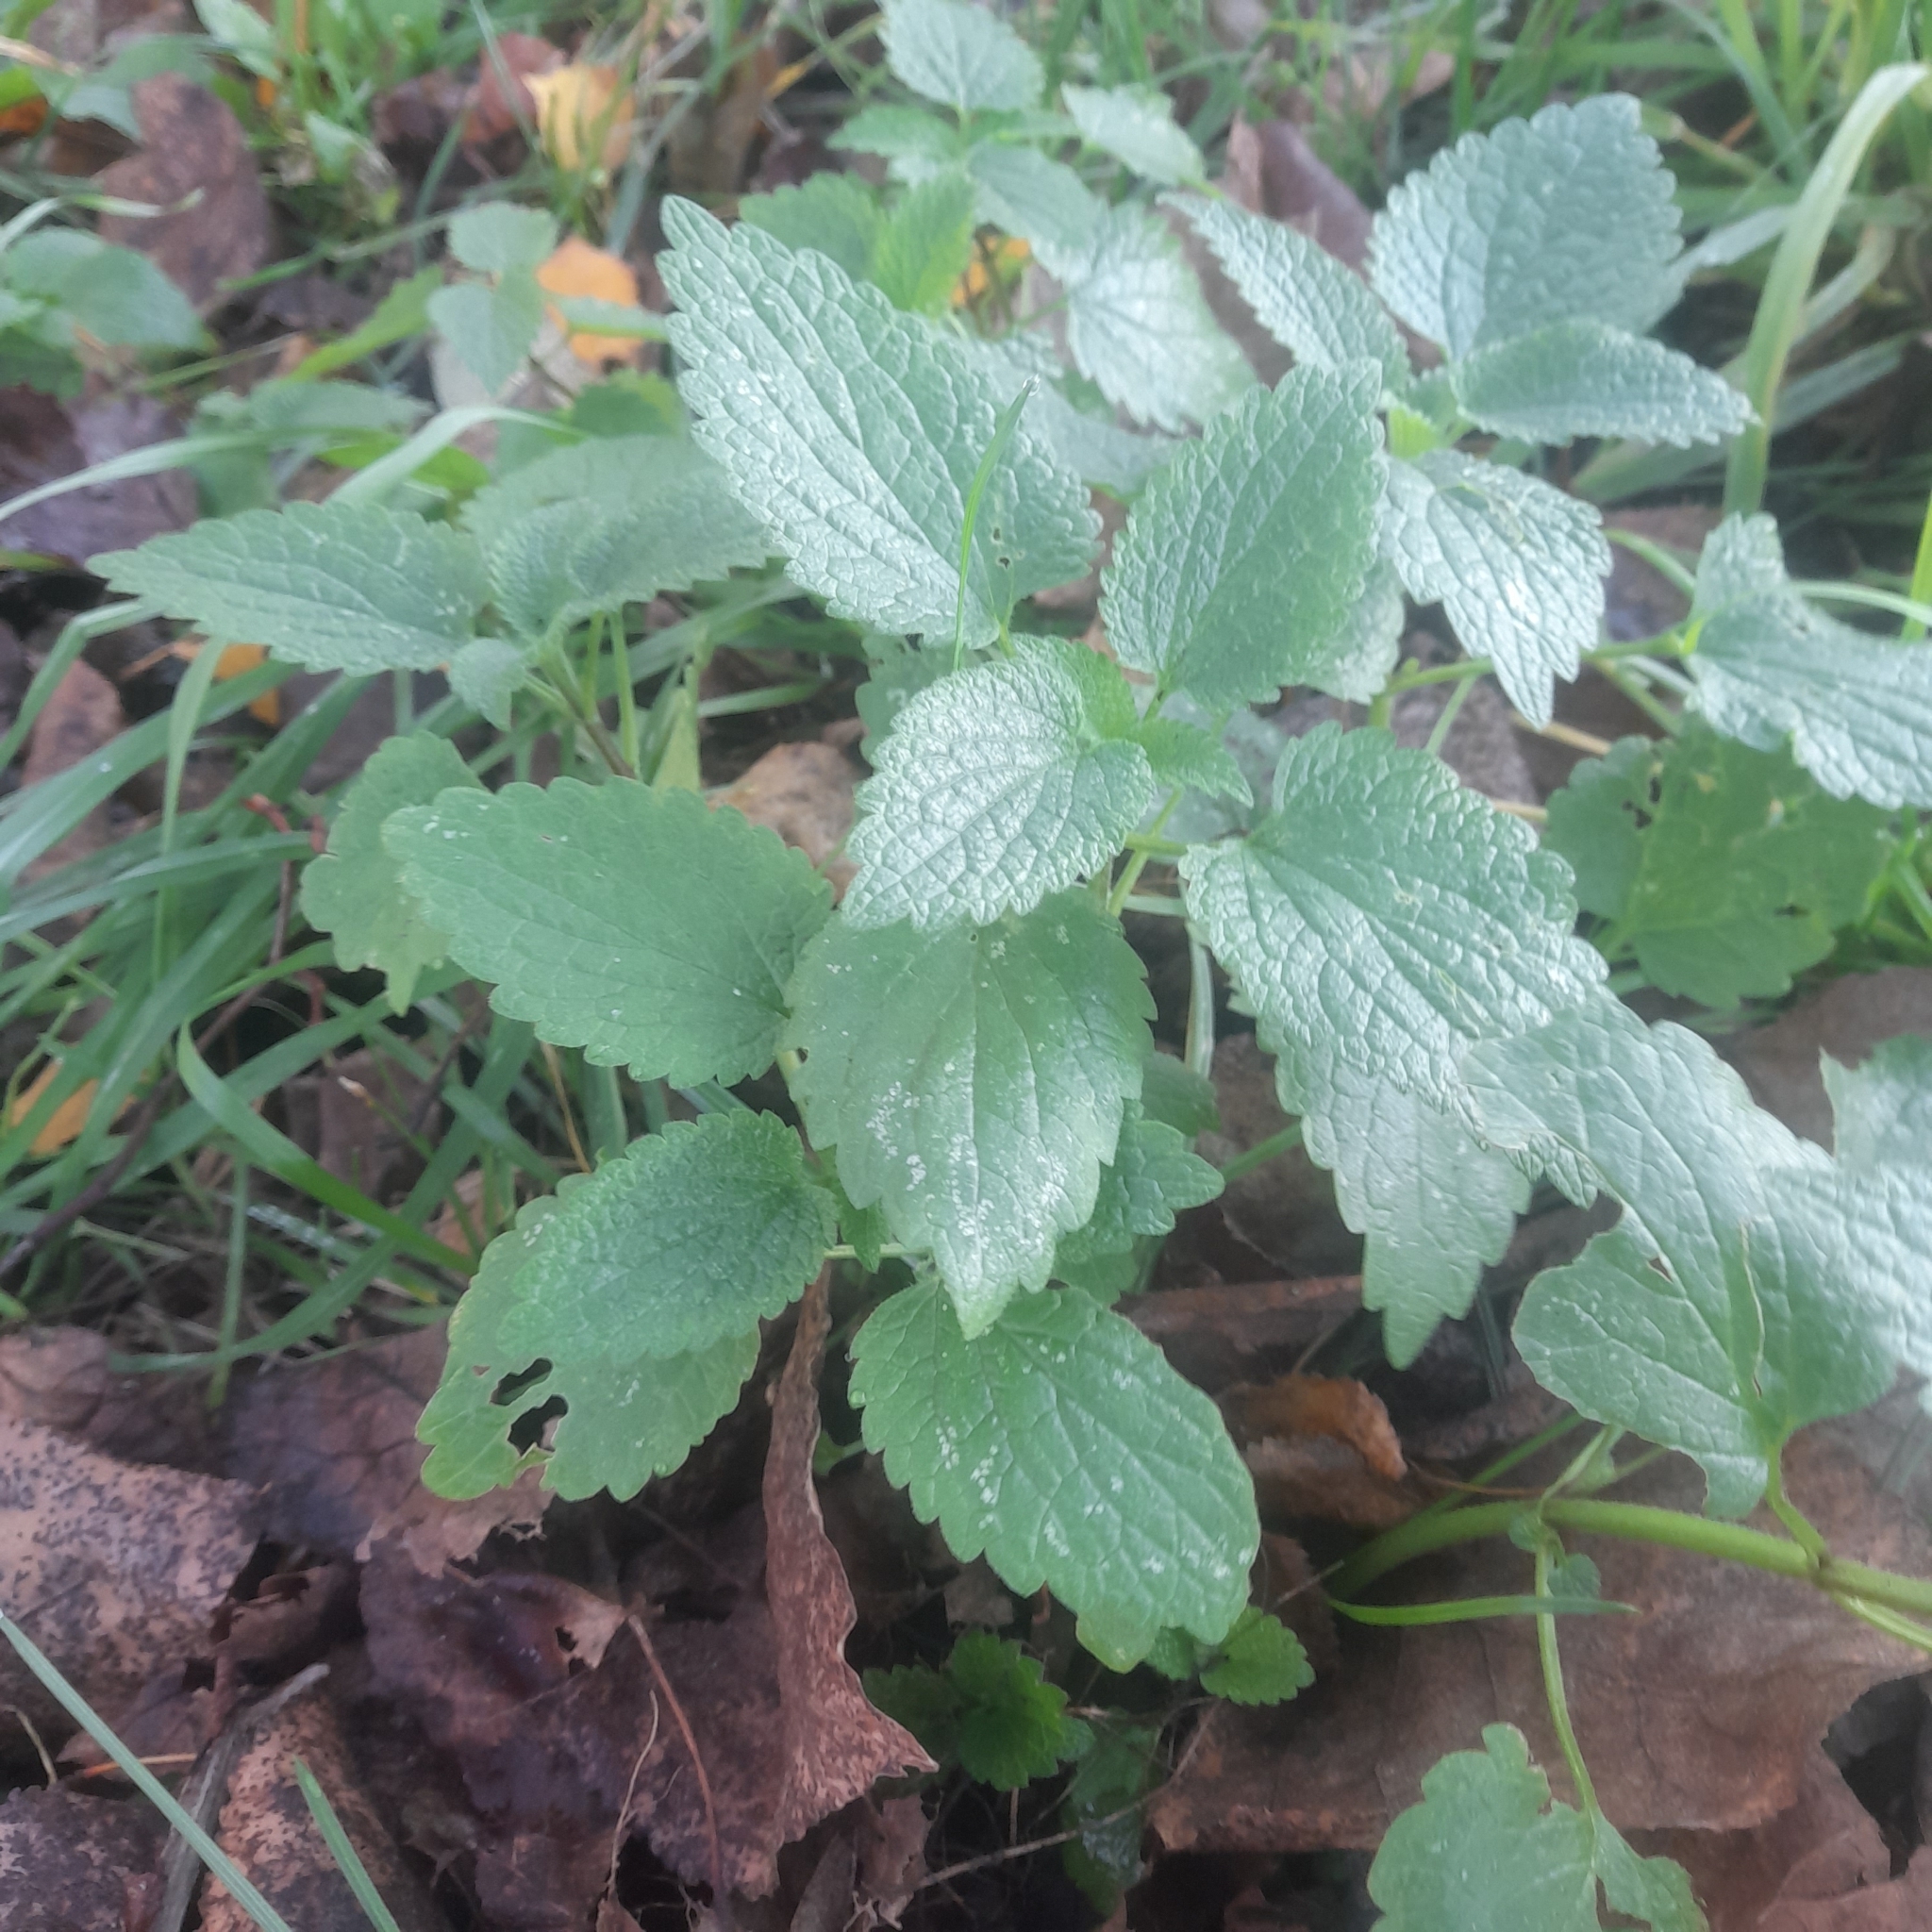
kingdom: Plantae
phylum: Tracheophyta
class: Magnoliopsida
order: Lamiales
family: Lamiaceae
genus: Lamium
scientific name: Lamium album
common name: White dead-nettle
